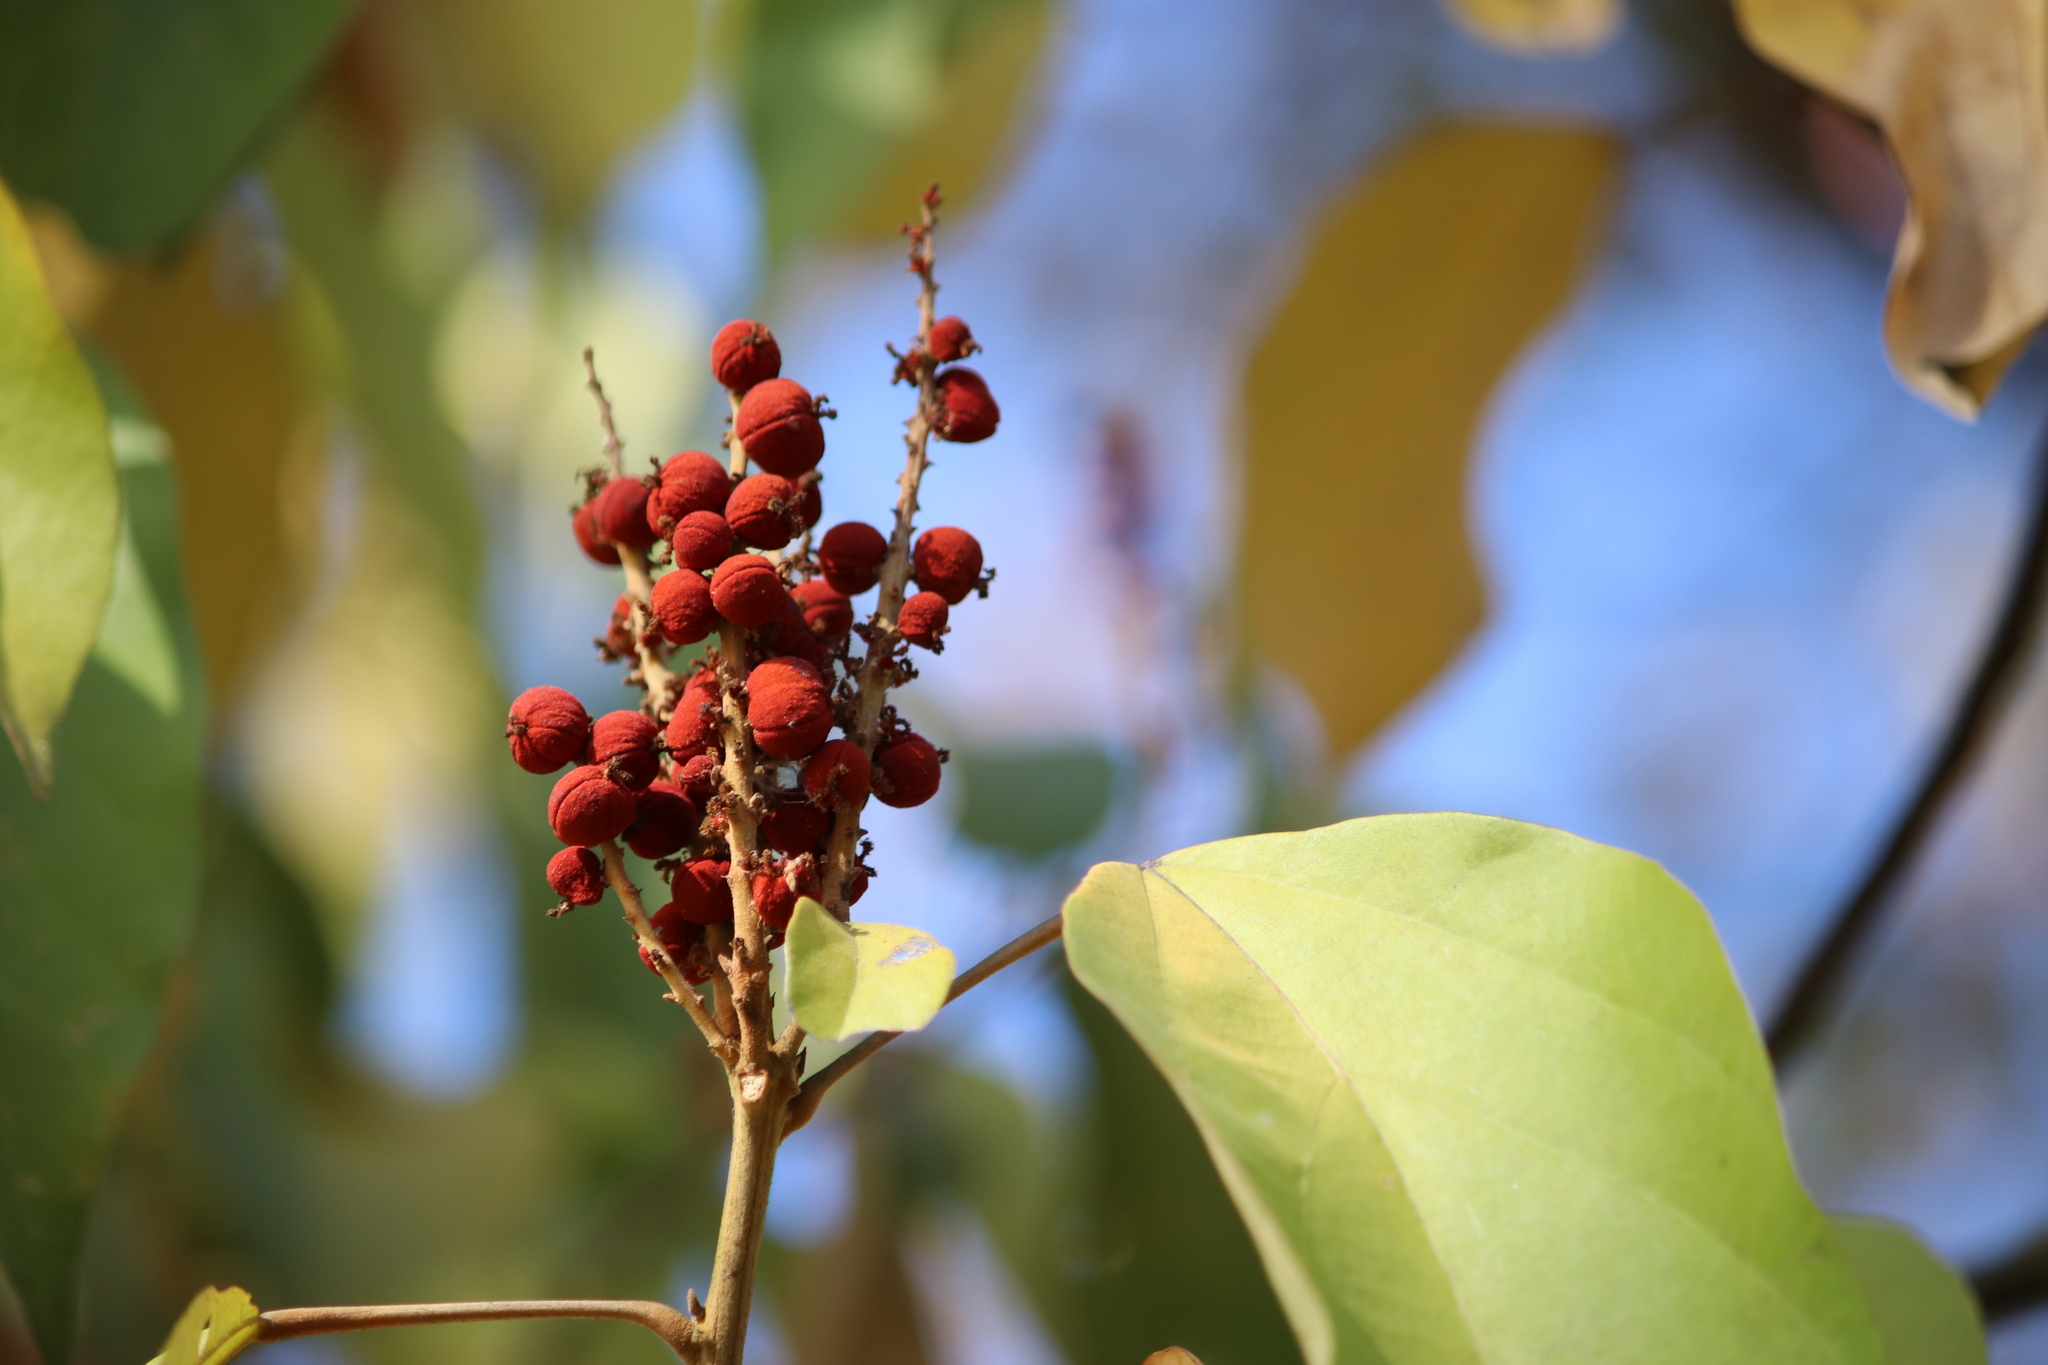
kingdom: Plantae
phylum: Tracheophyta
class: Magnoliopsida
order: Malpighiales
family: Euphorbiaceae
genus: Mallotus
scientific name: Mallotus philippensis
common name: Kamala tree
